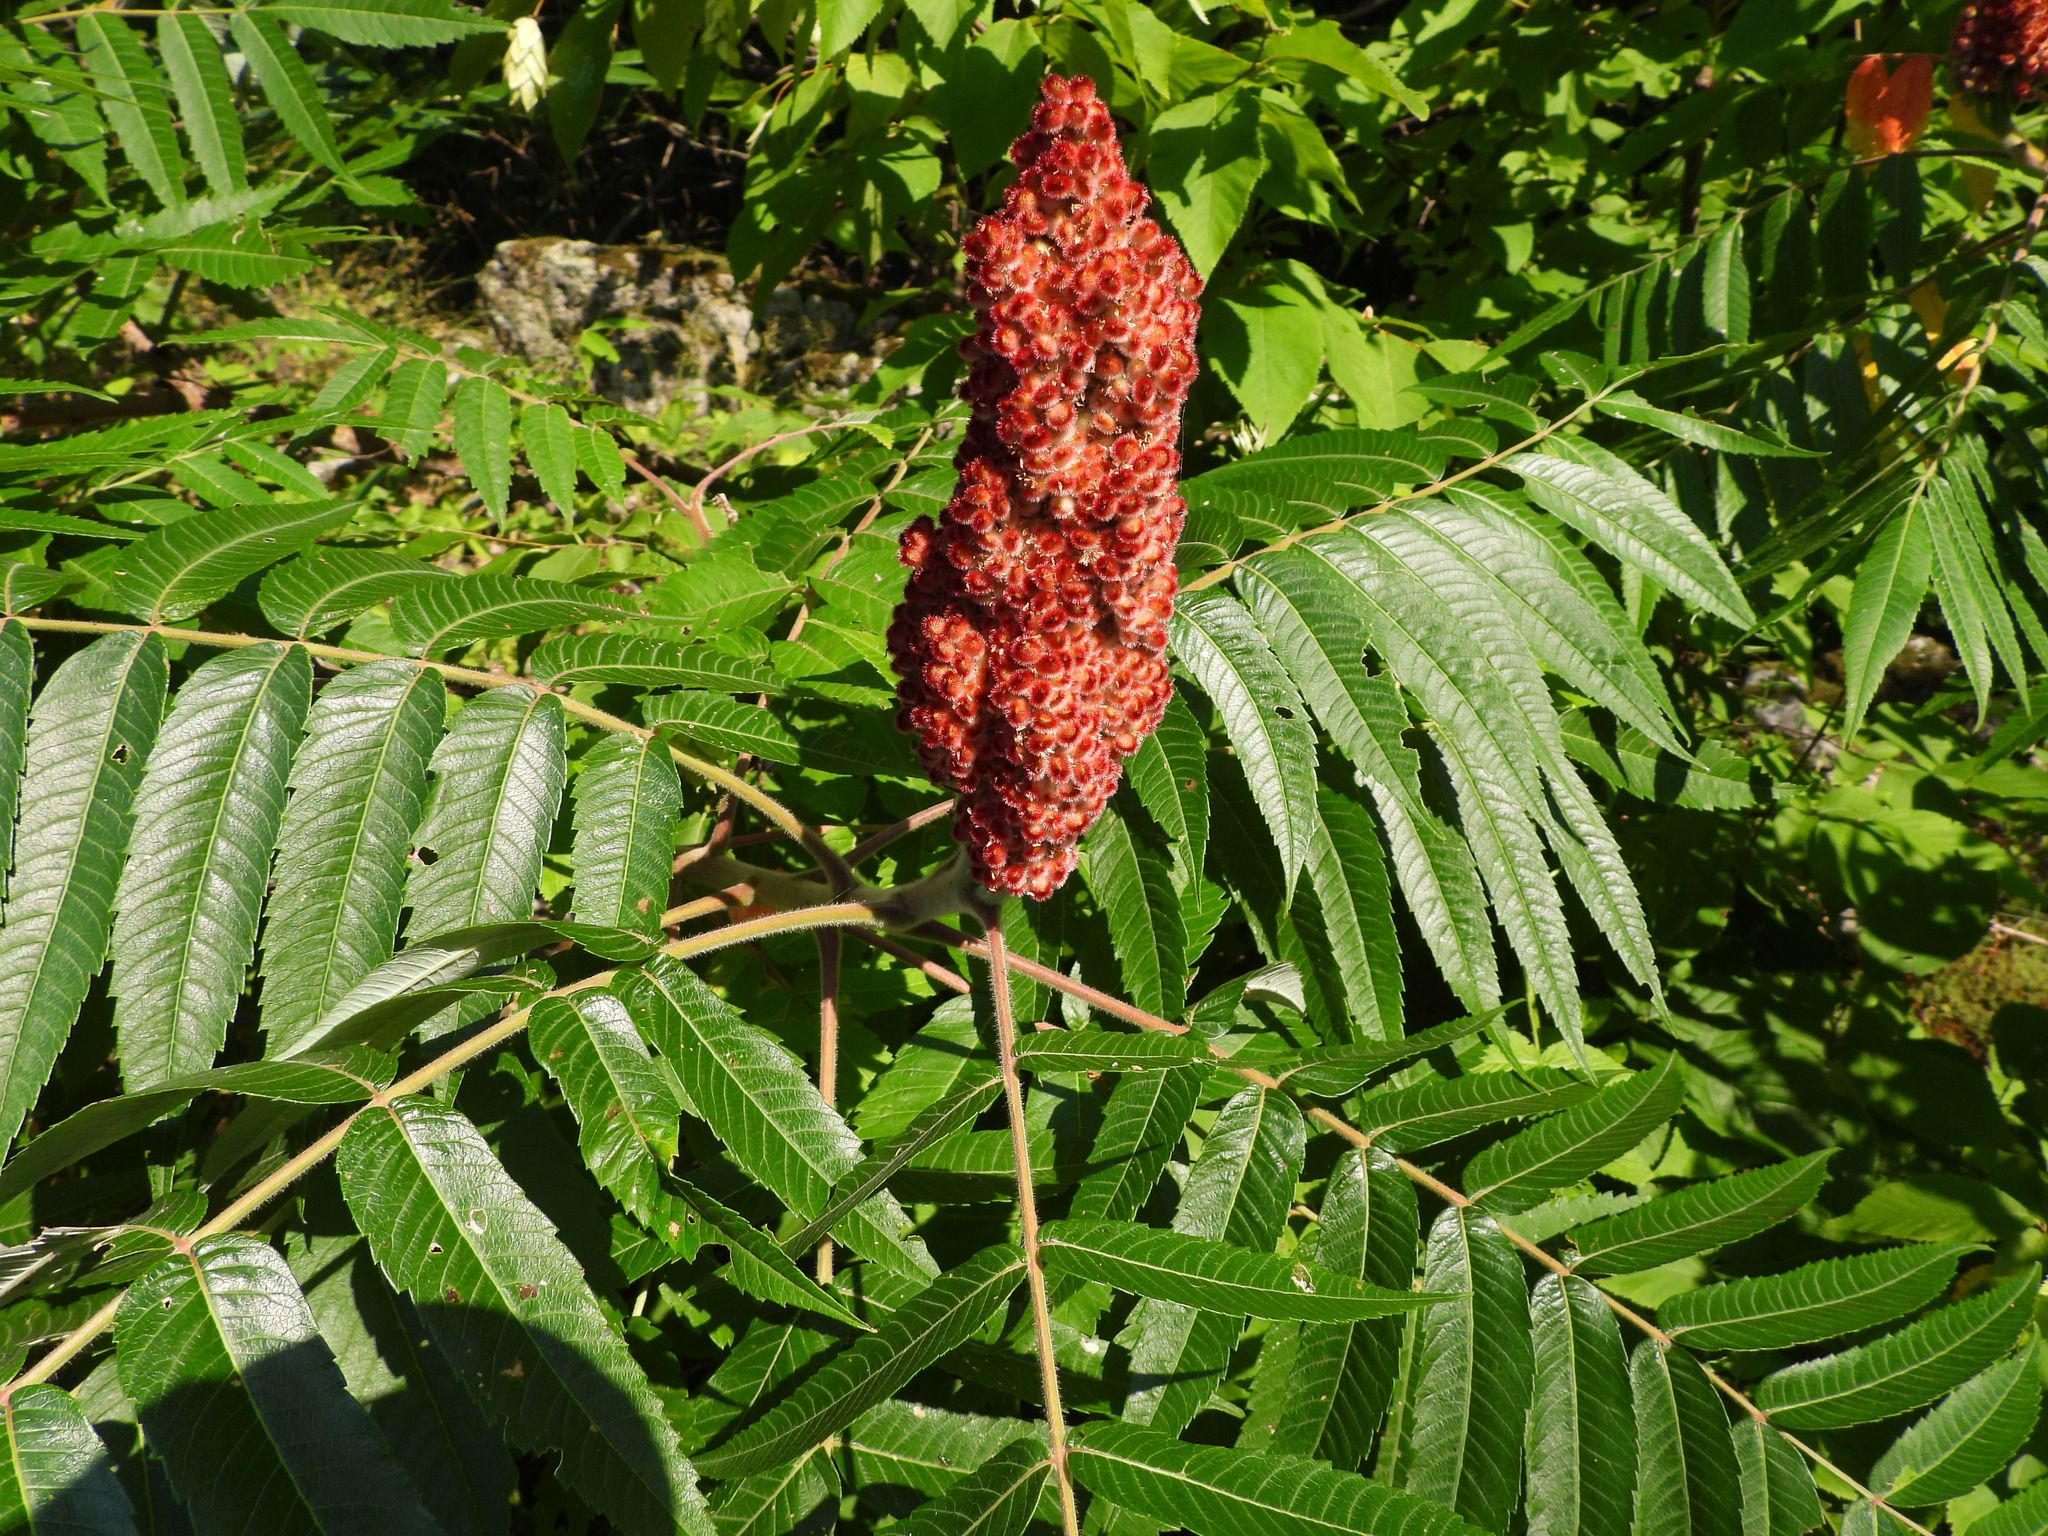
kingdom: Plantae
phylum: Tracheophyta
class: Magnoliopsida
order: Sapindales
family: Anacardiaceae
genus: Rhus
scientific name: Rhus typhina
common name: Staghorn sumac
